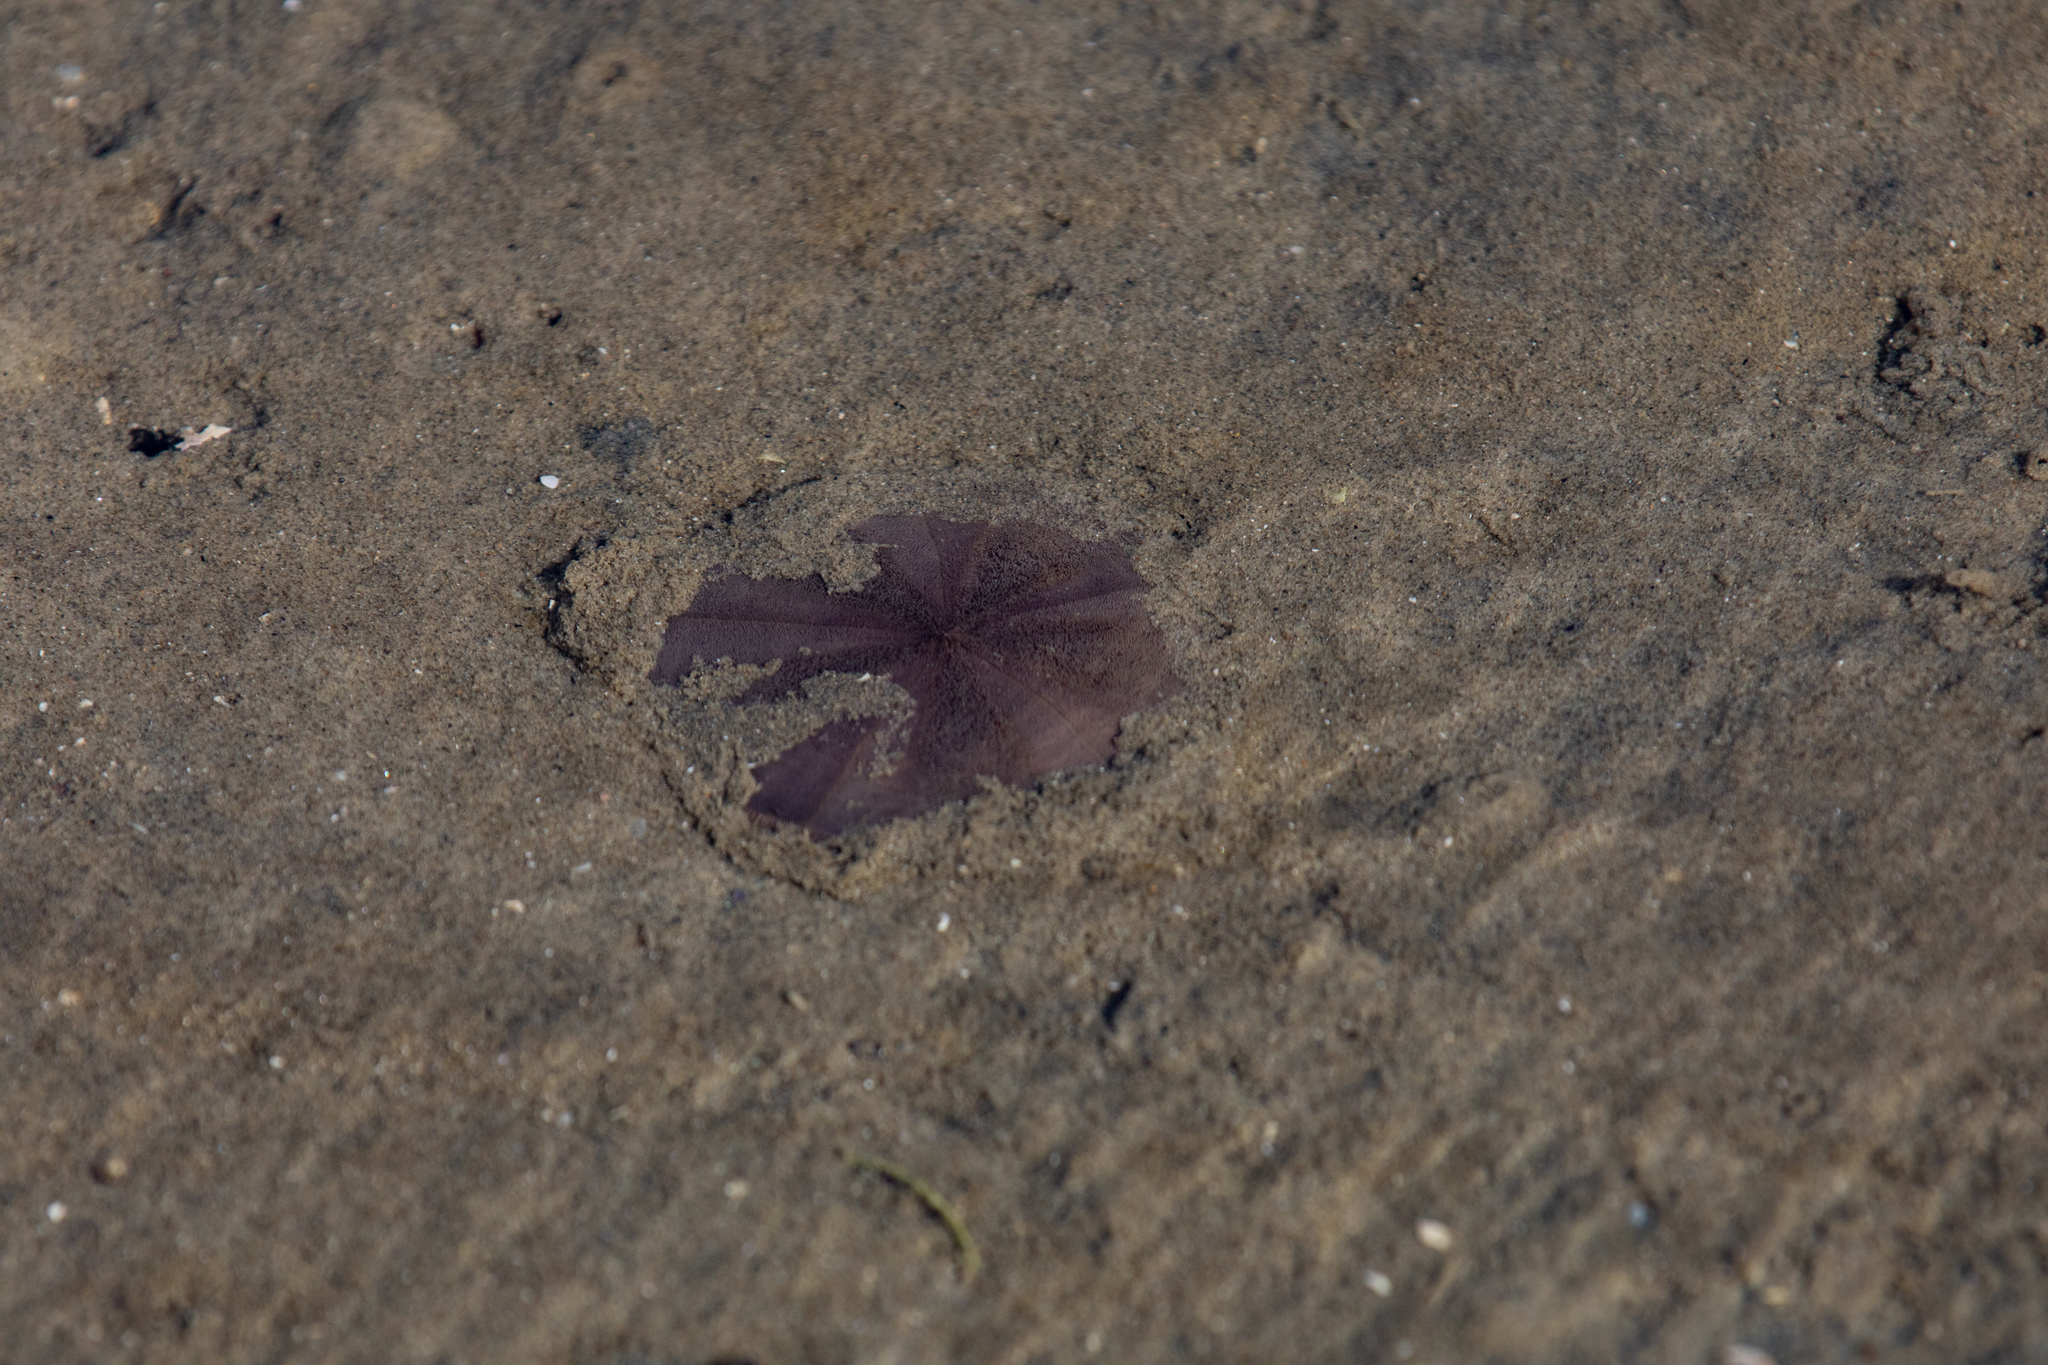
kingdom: Animalia
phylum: Echinodermata
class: Echinoidea
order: Clypeasteroida
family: Clypeasteridae
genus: Fellaster
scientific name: Fellaster zelandiae
